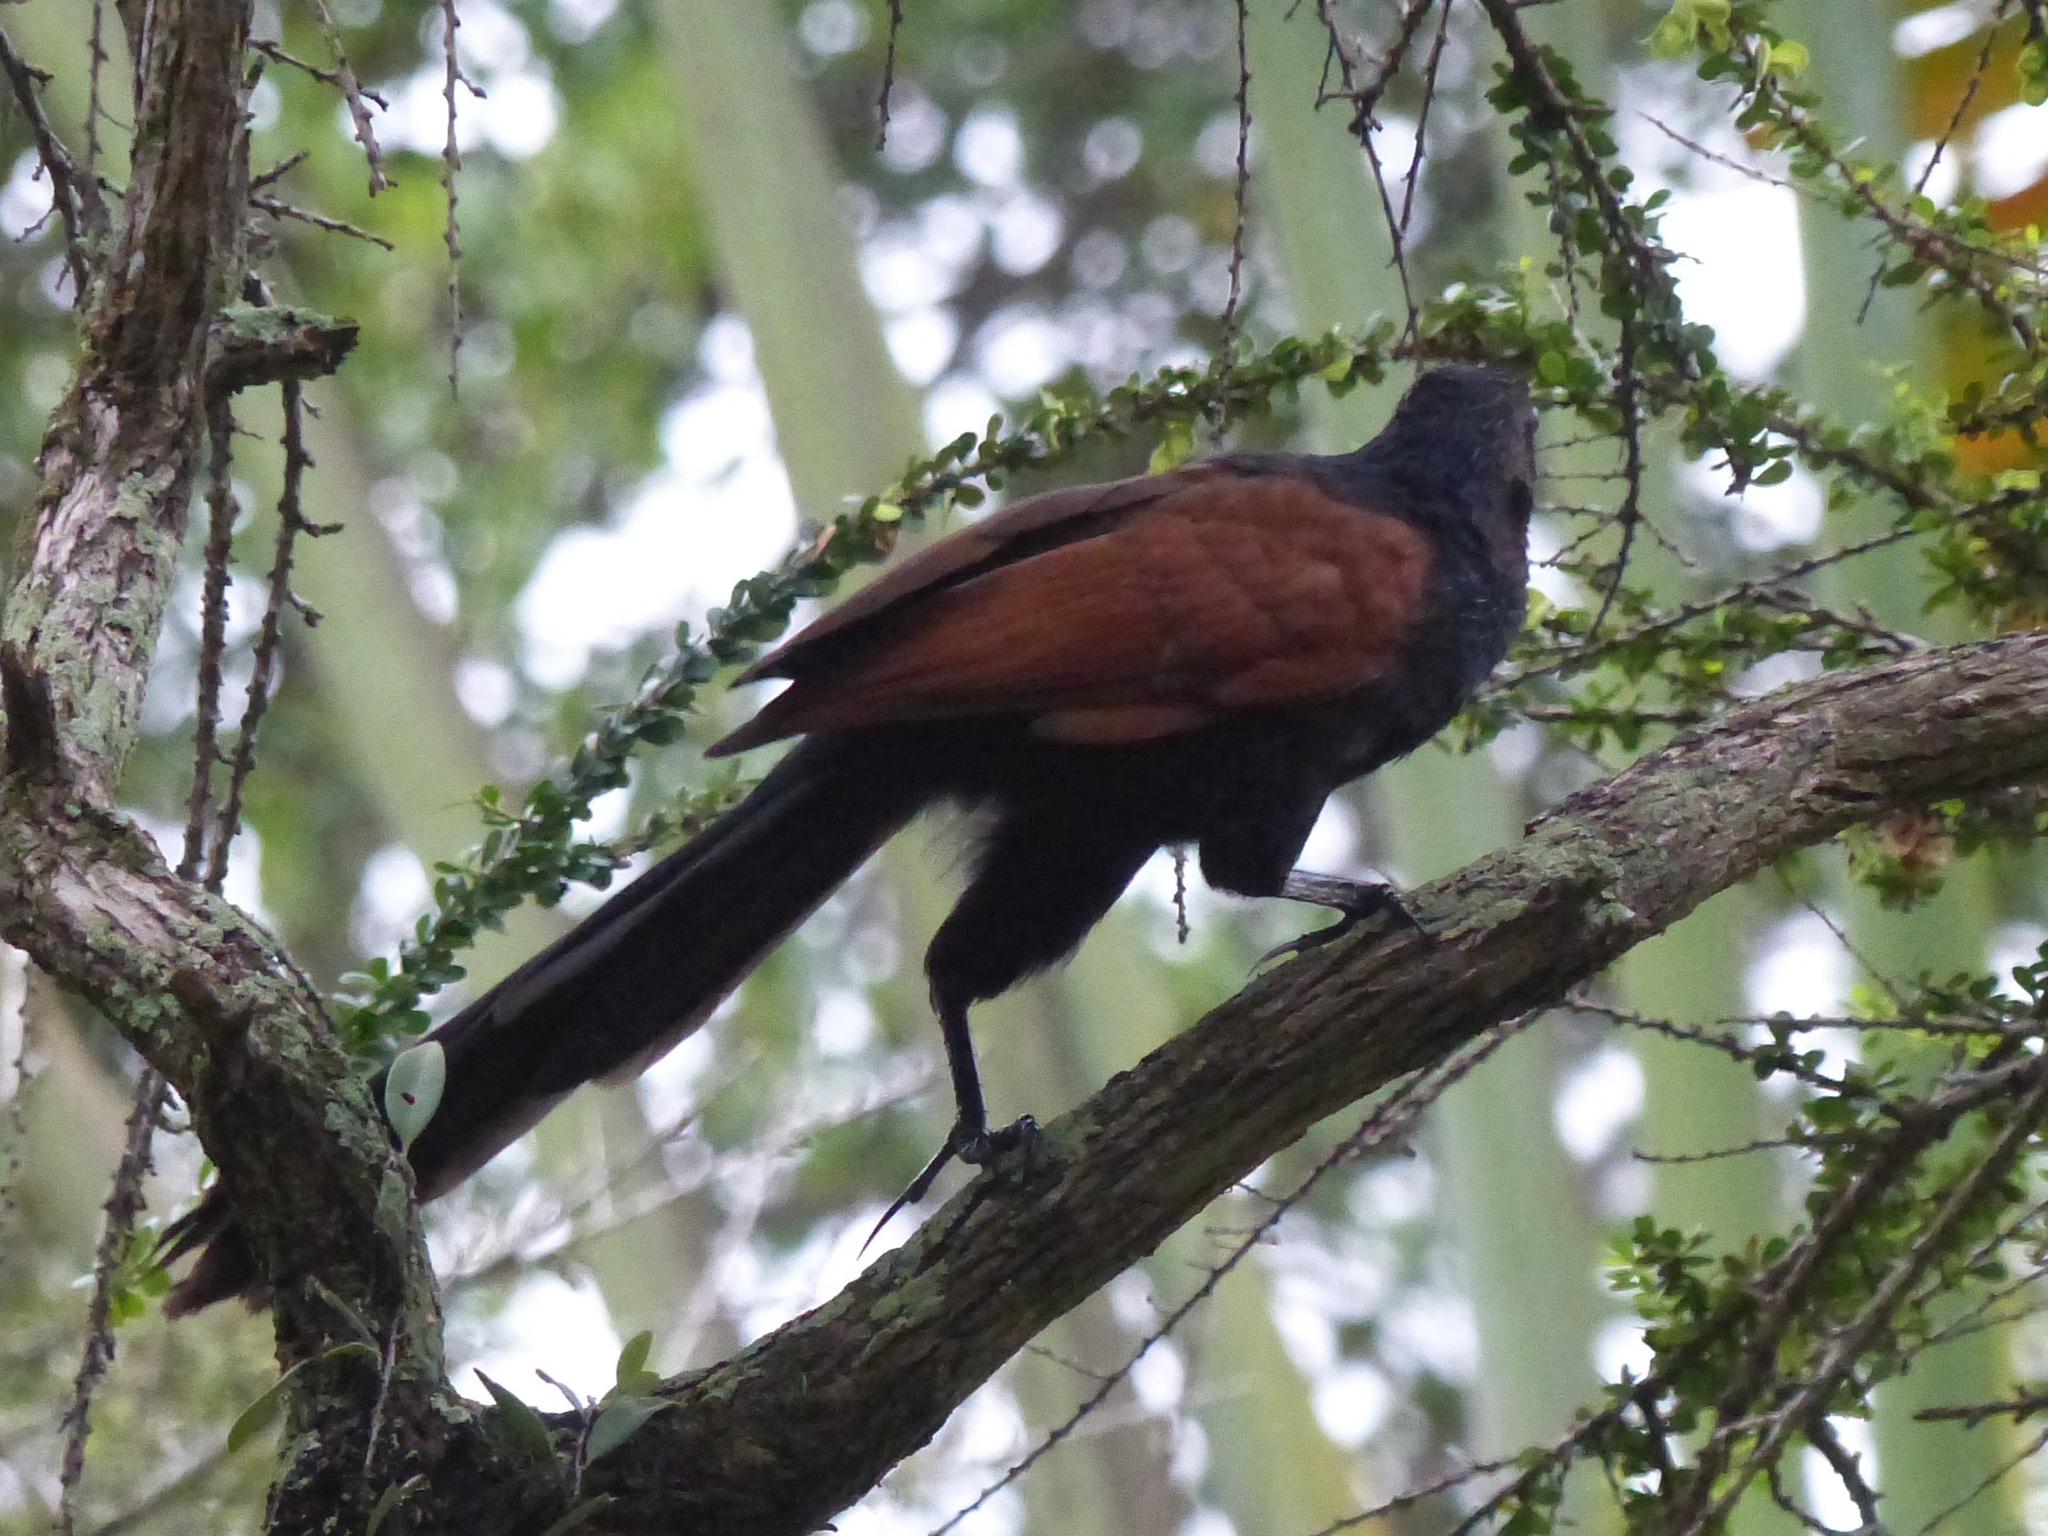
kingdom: Animalia
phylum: Chordata
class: Aves
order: Cuculiformes
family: Cuculidae
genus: Centropus
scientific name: Centropus sinensis
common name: Greater coucal
